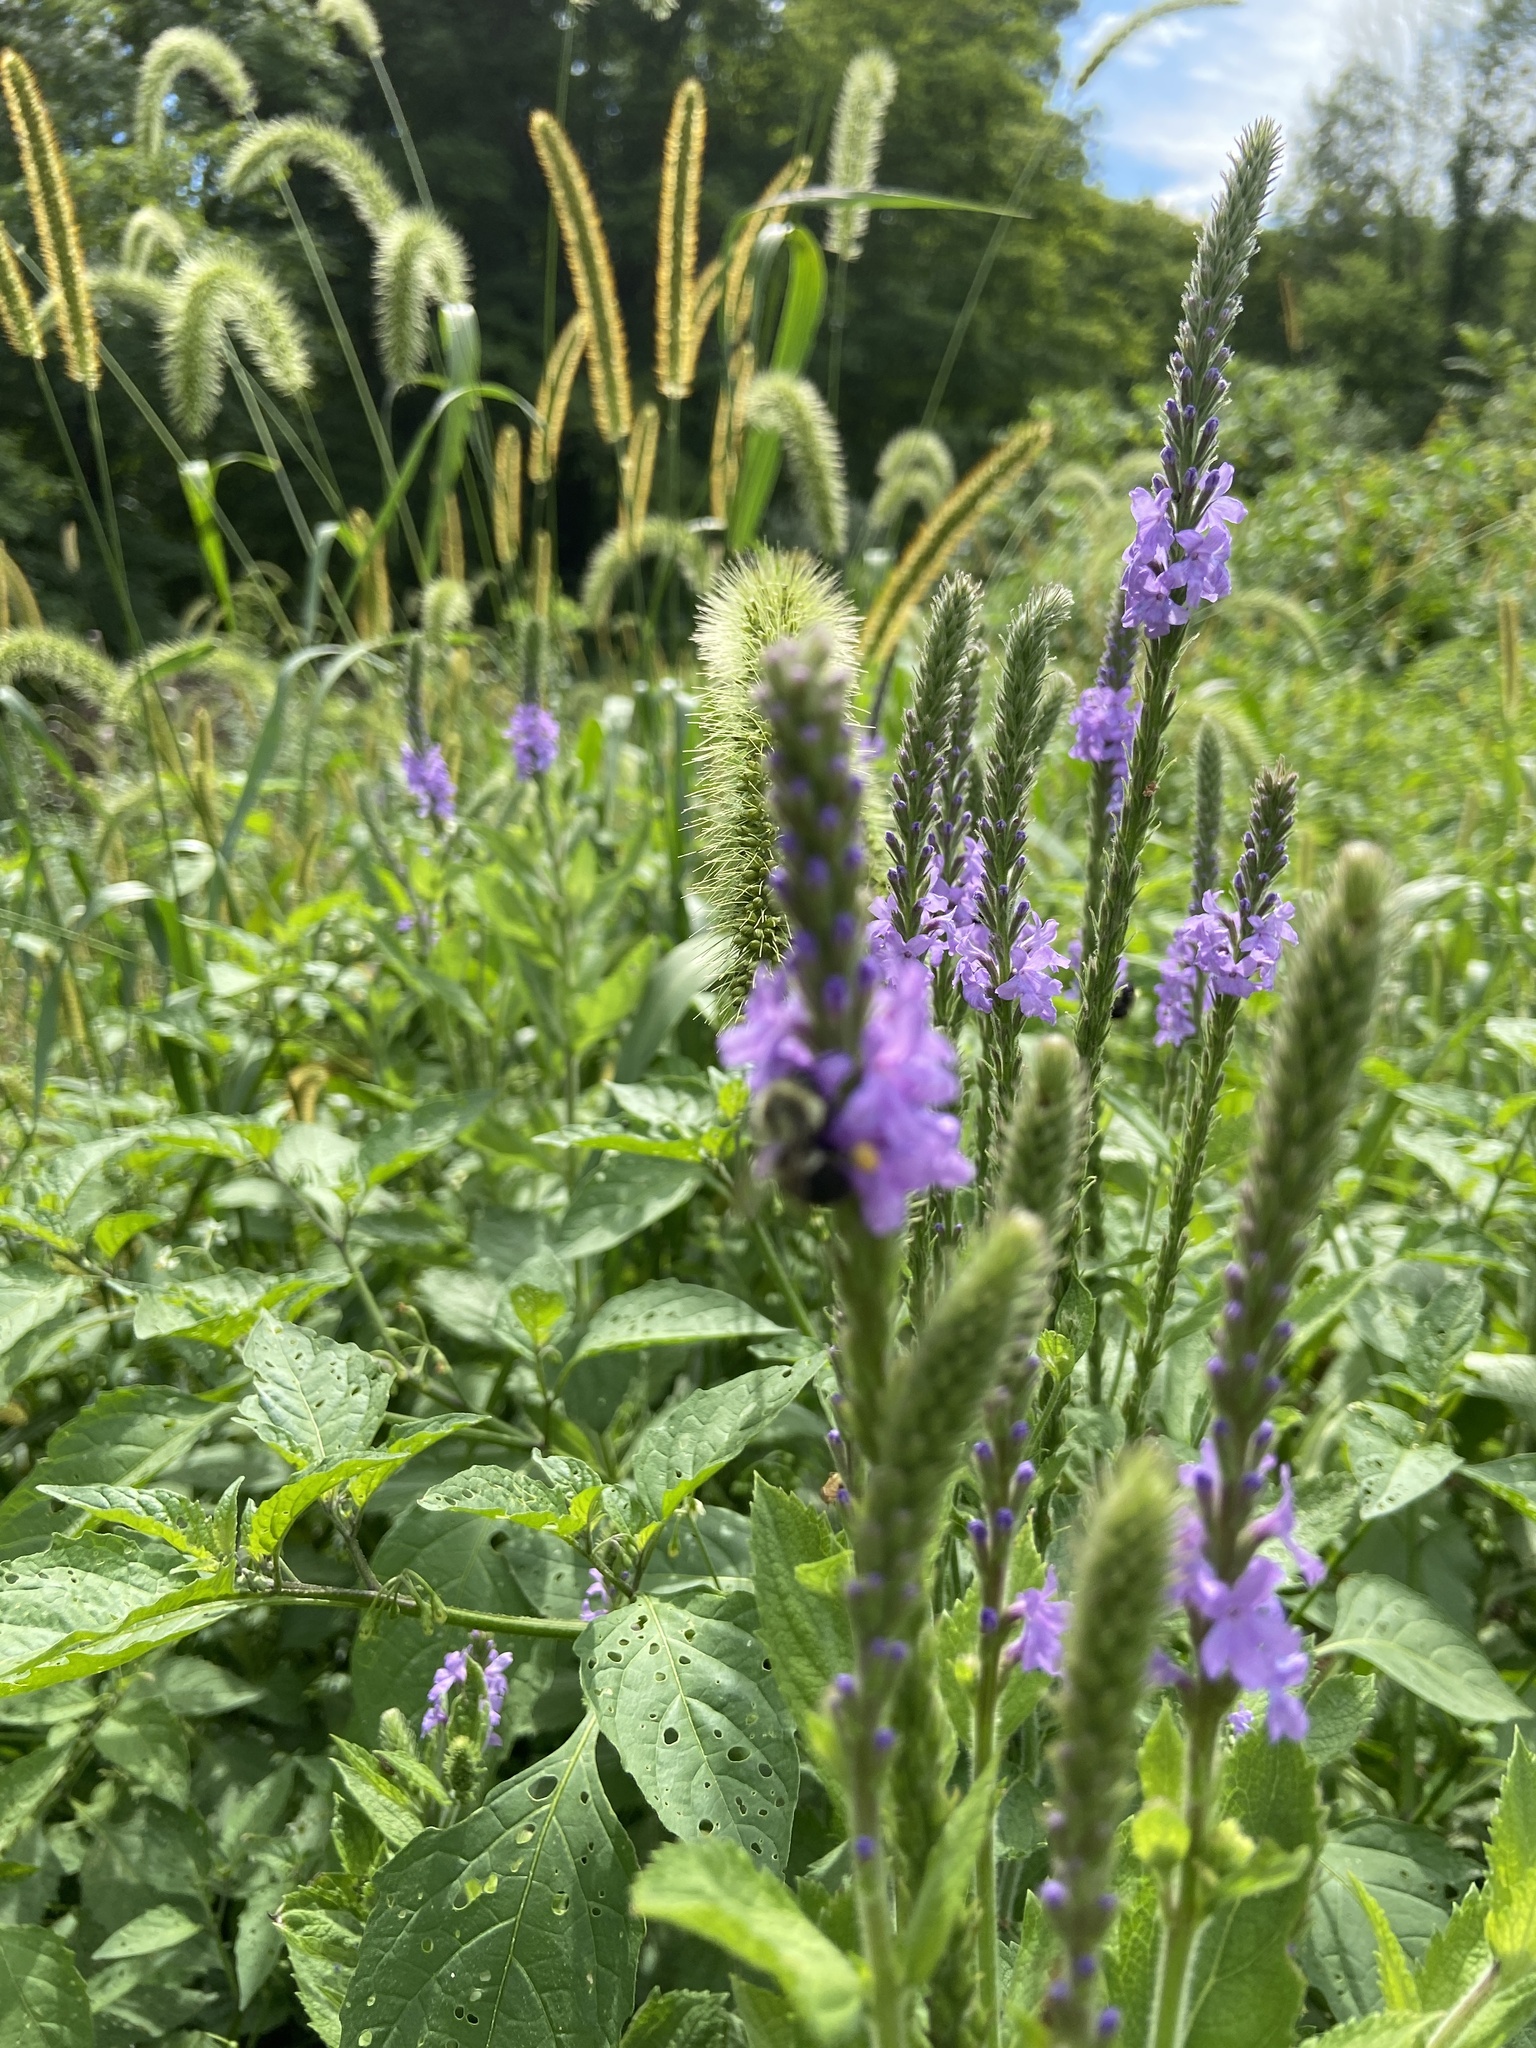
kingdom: Plantae
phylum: Tracheophyta
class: Magnoliopsida
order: Lamiales
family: Verbenaceae
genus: Verbena
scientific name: Verbena stricta
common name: Hoary vervain
